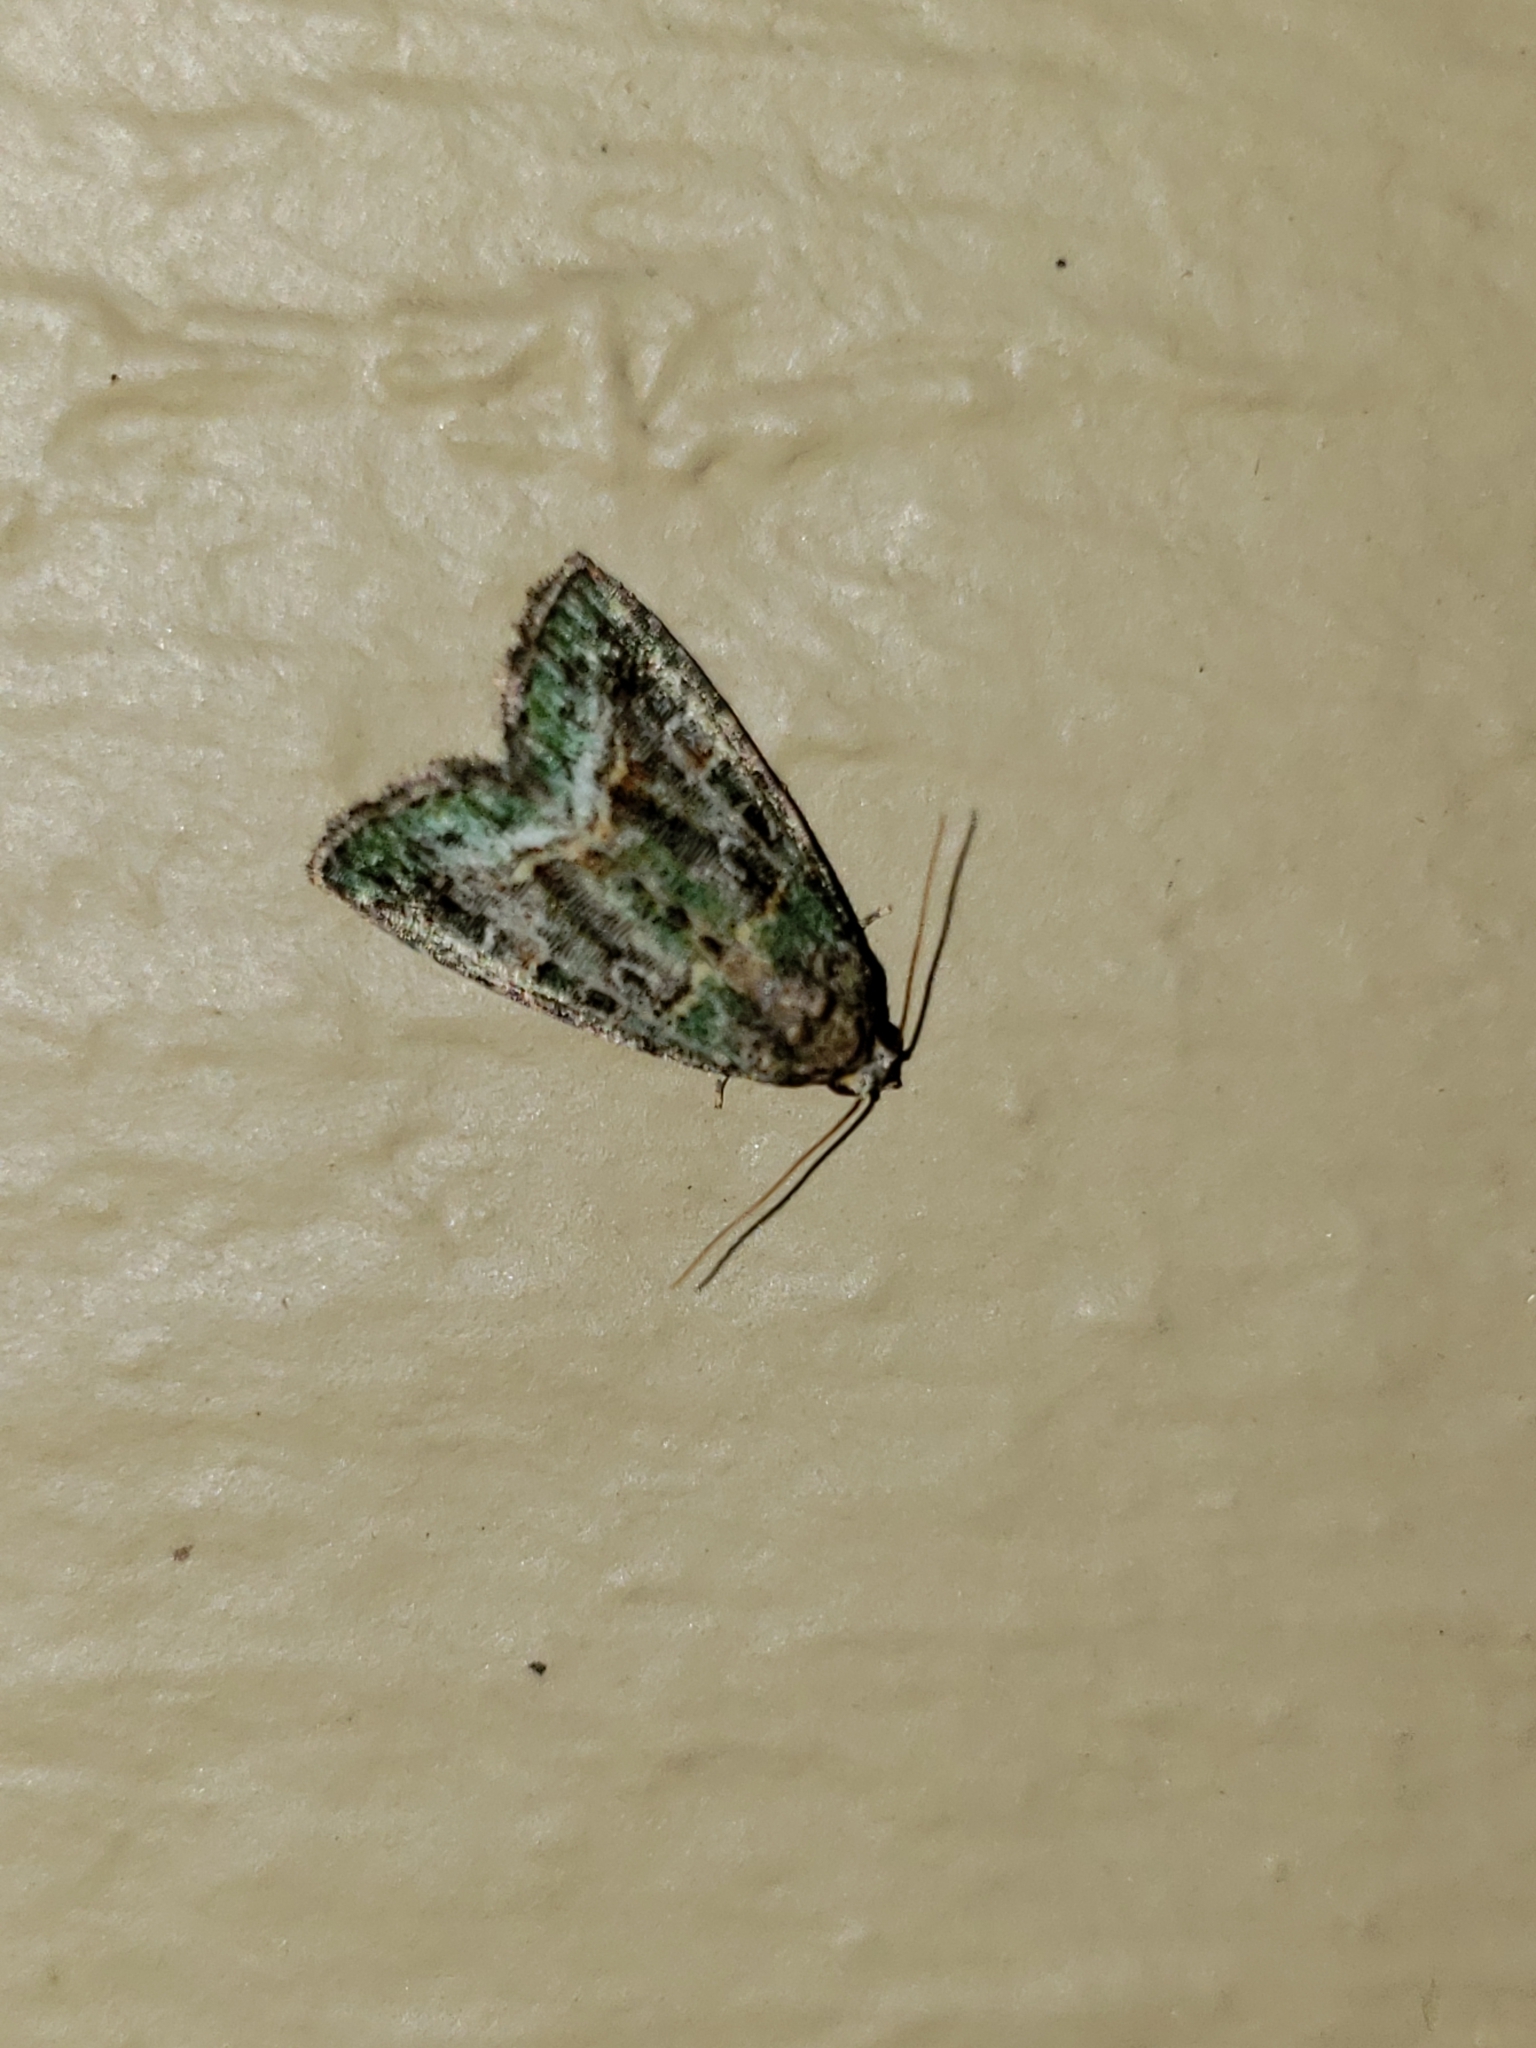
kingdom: Animalia
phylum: Arthropoda
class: Insecta
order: Lepidoptera
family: Noctuidae
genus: Lithacodia
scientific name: Lithacodia musta
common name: Small mossy glyph
